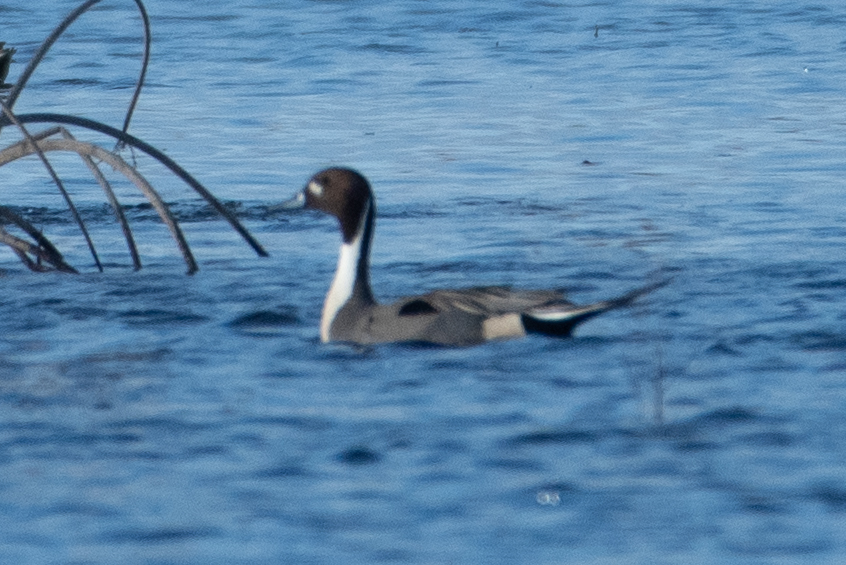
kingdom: Animalia
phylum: Chordata
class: Aves
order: Anseriformes
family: Anatidae
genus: Anas
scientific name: Anas acuta
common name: Northern pintail
